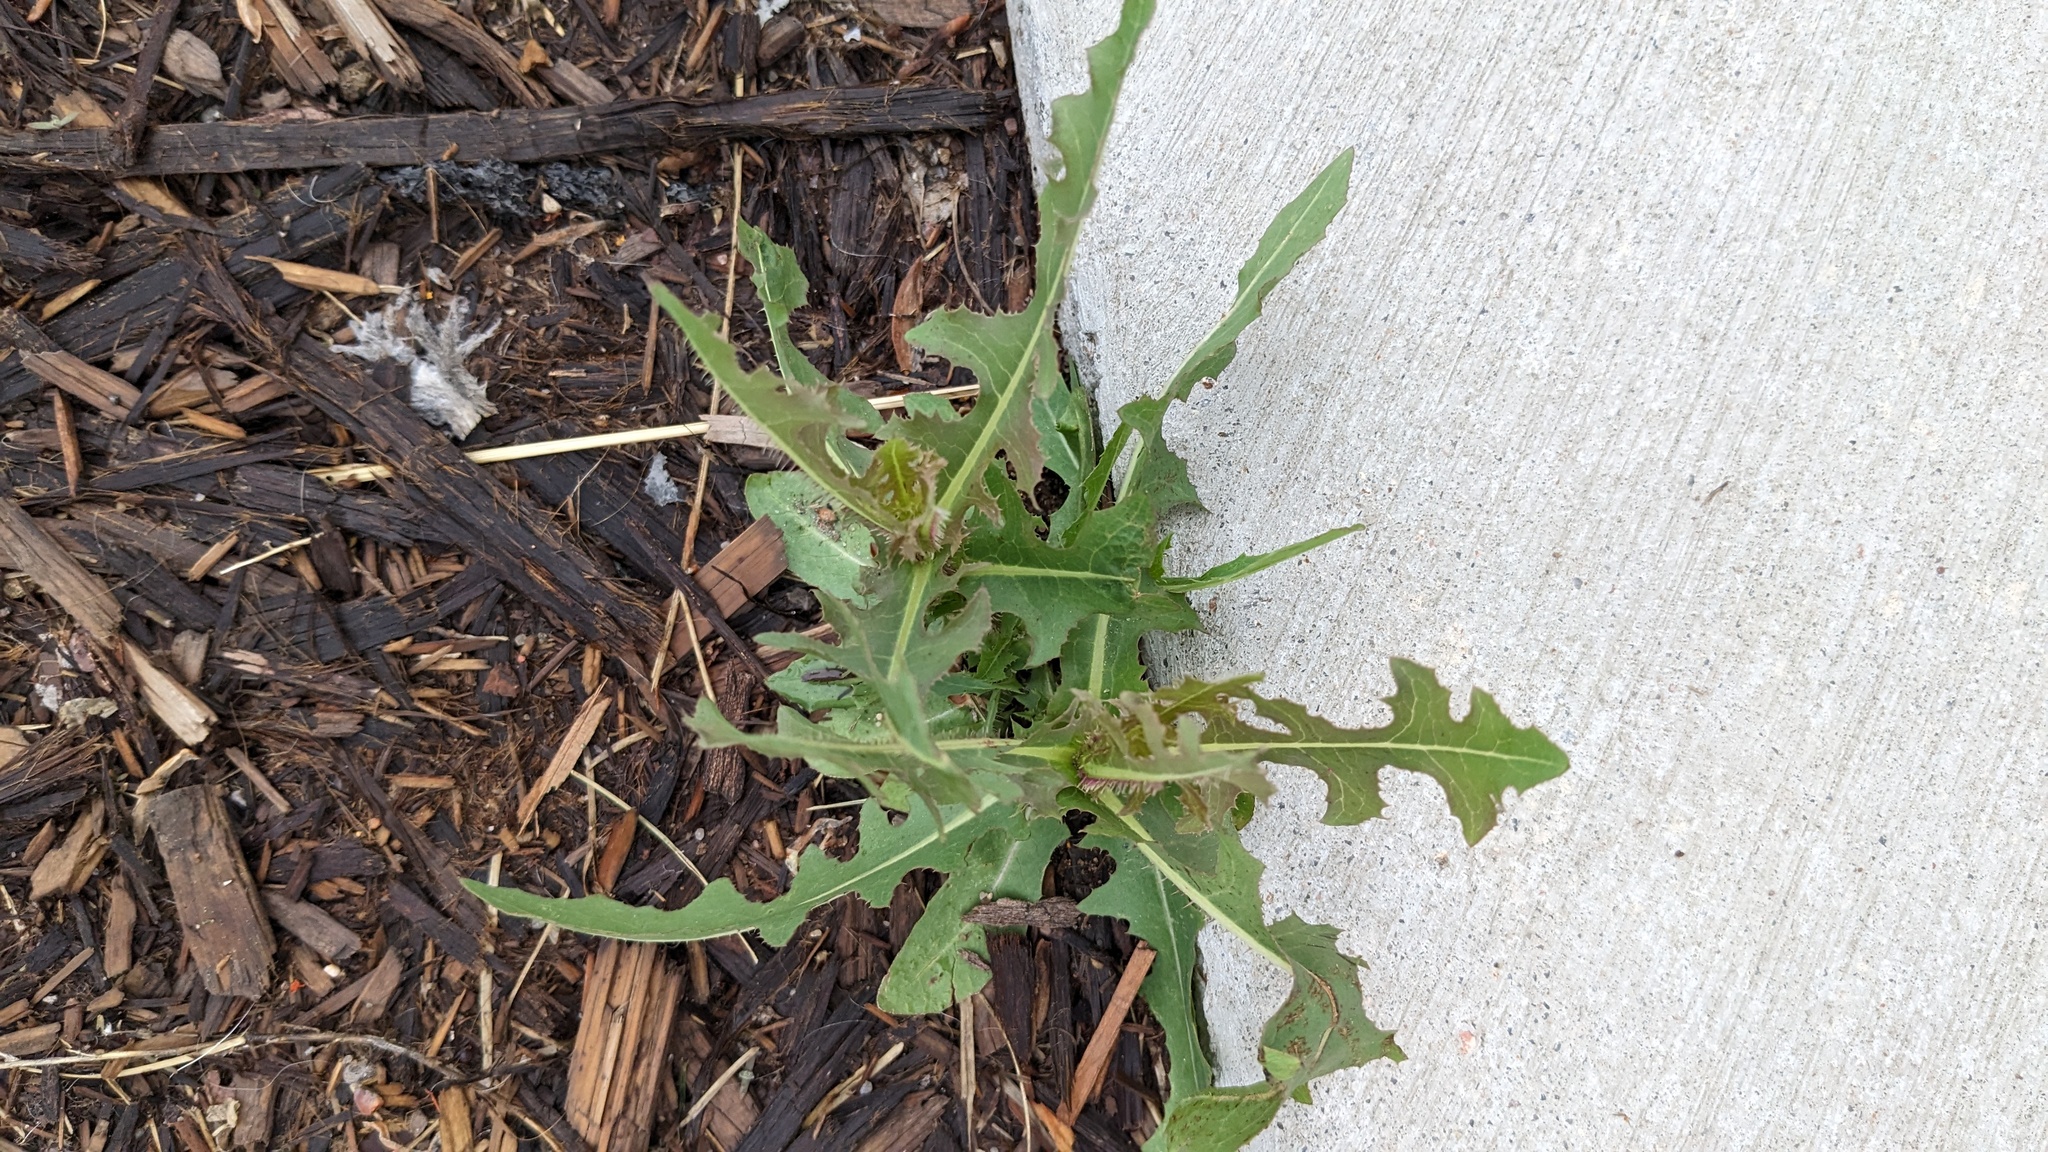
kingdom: Plantae
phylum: Tracheophyta
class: Magnoliopsida
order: Asterales
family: Asteraceae
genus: Lactuca
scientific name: Lactuca serriola
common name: Prickly lettuce
